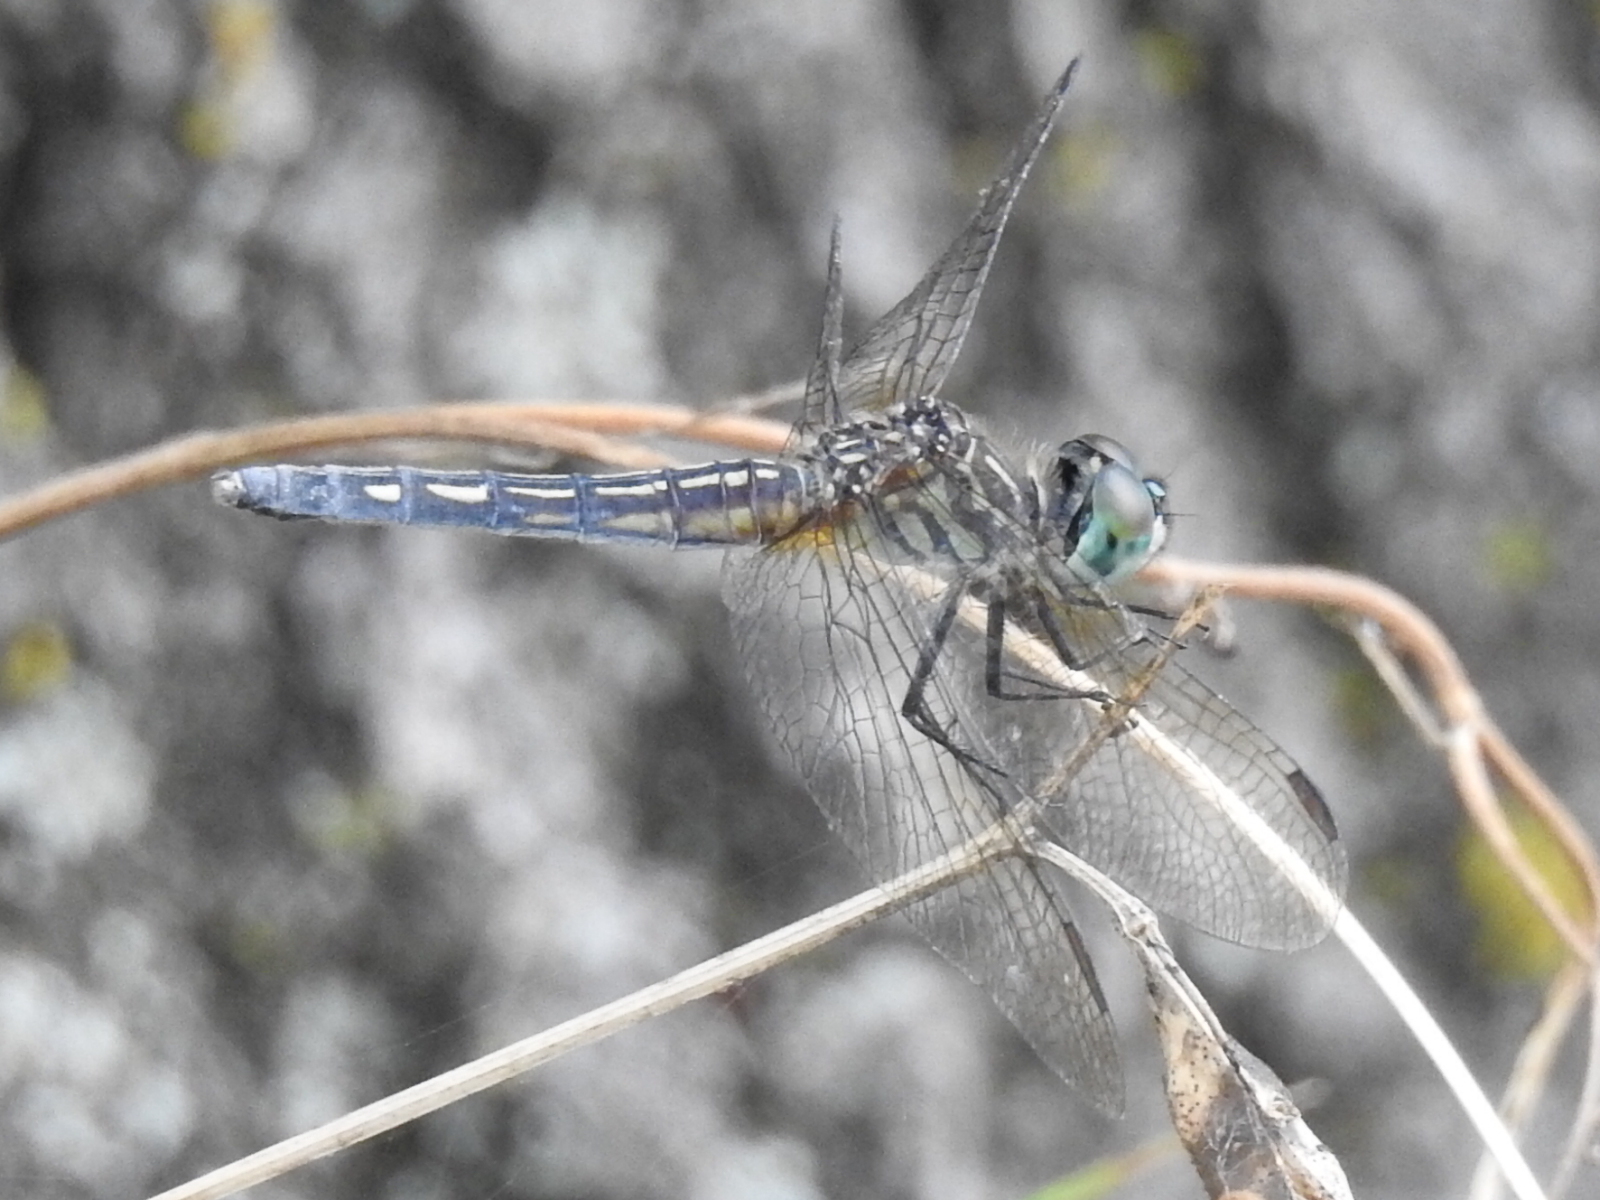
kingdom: Animalia
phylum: Arthropoda
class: Insecta
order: Odonata
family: Libellulidae
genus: Pachydiplax
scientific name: Pachydiplax longipennis
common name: Blue dasher
